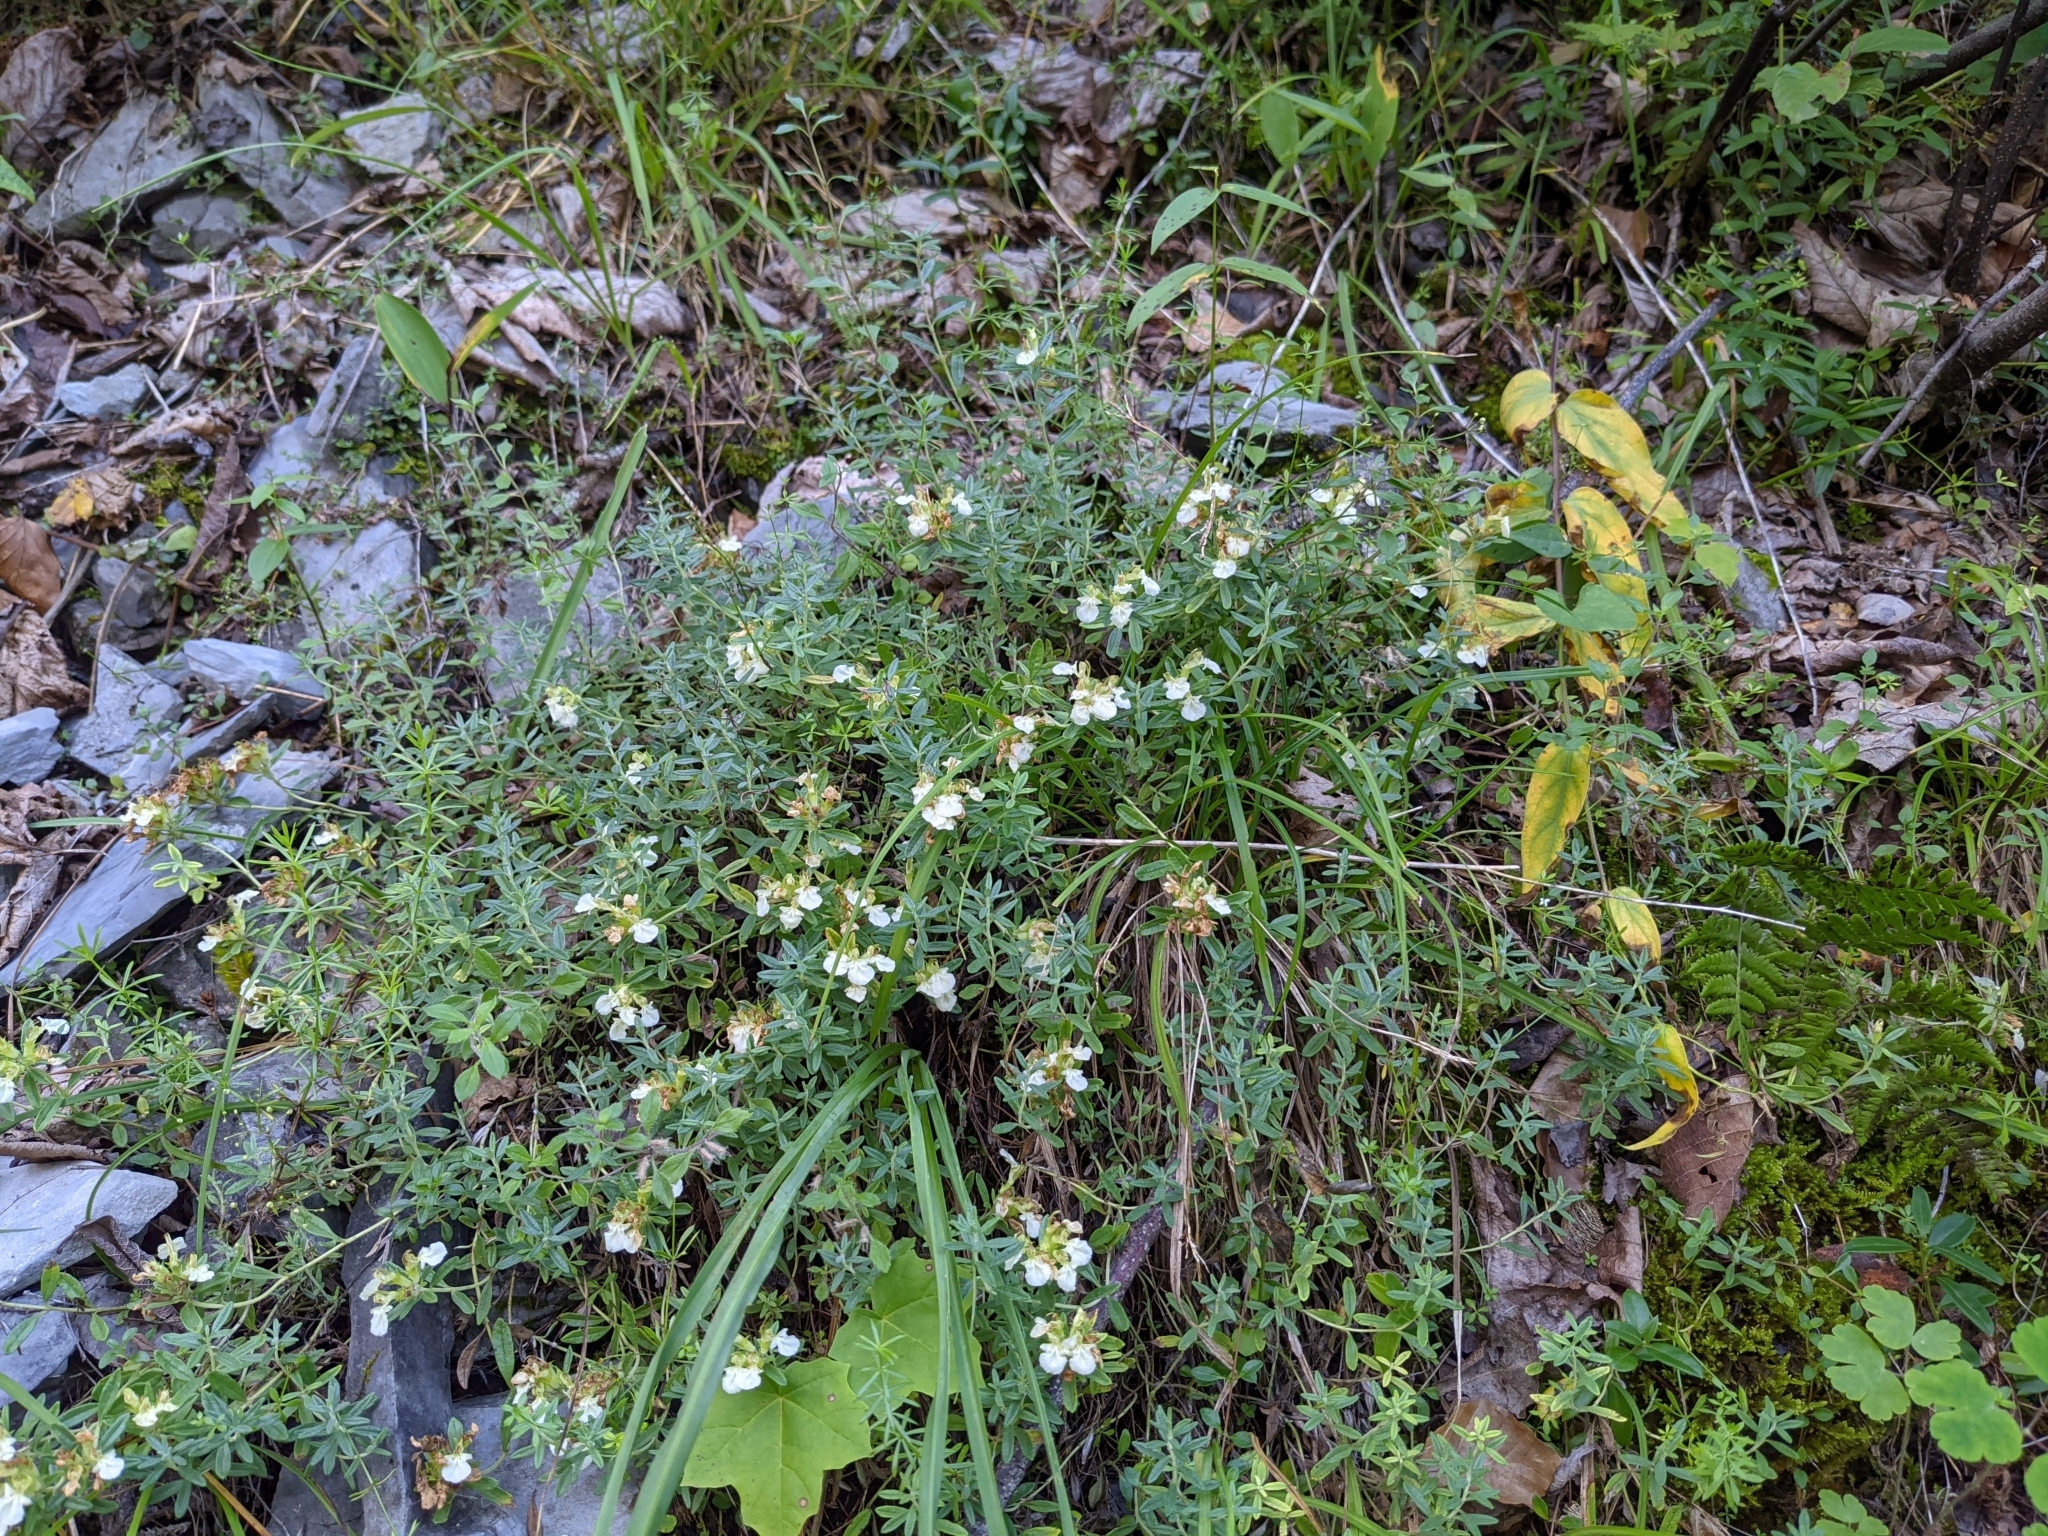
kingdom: Plantae
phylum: Tracheophyta
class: Magnoliopsida
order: Lamiales
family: Lamiaceae
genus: Teucrium
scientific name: Teucrium montanum
